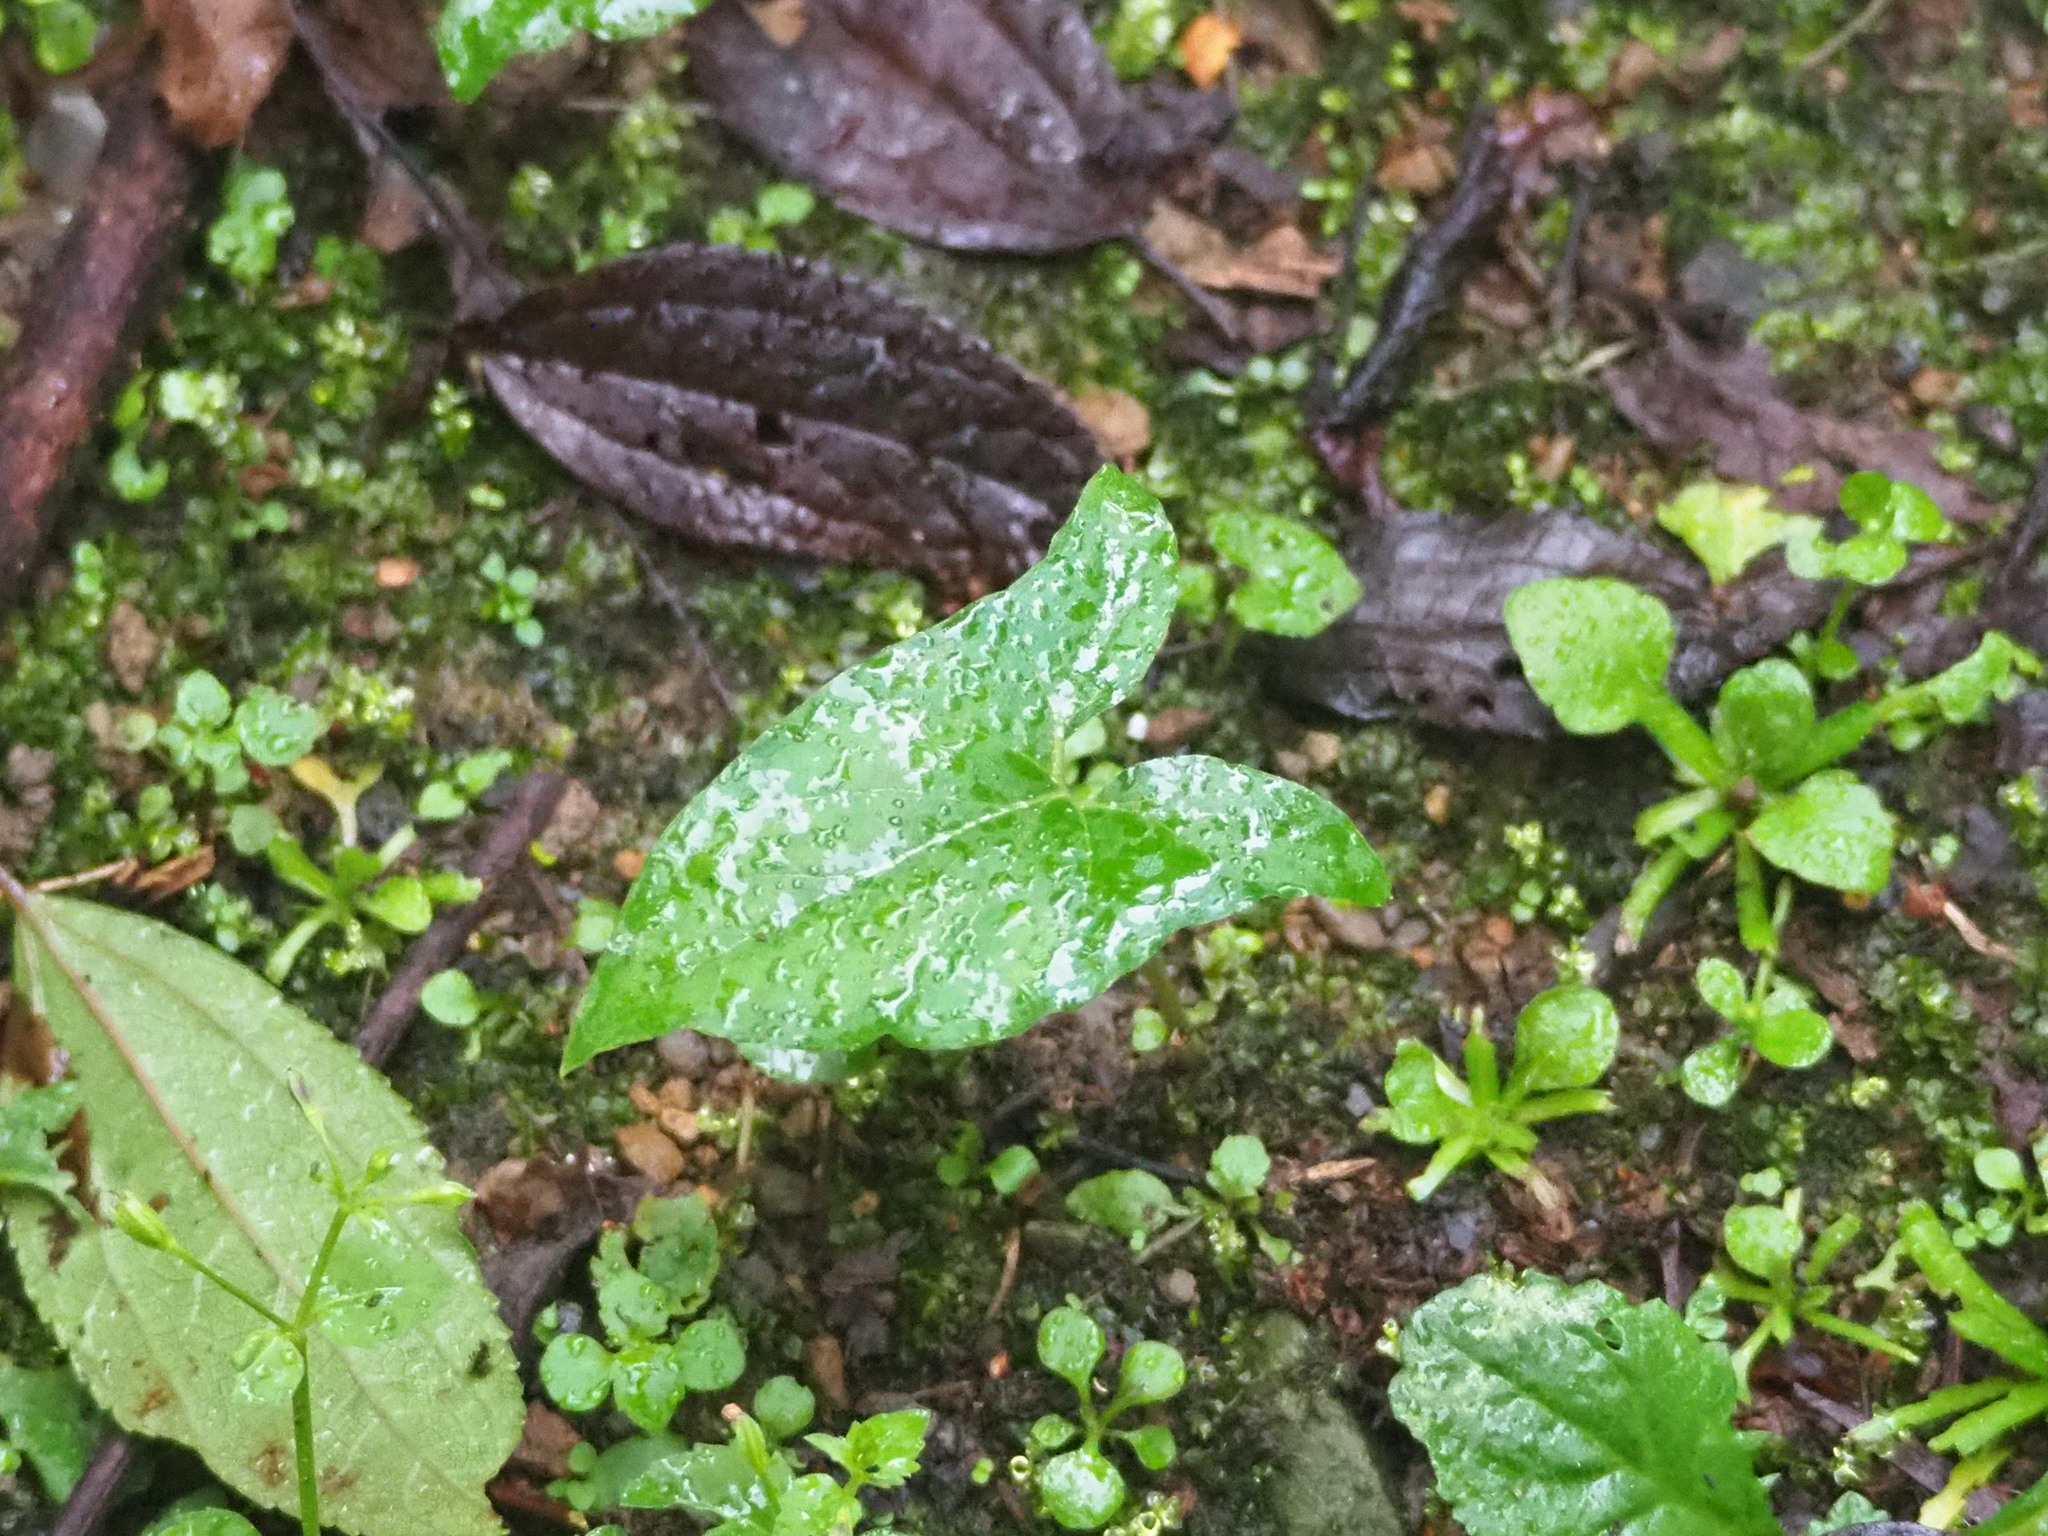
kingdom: Plantae
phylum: Tracheophyta
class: Liliopsida
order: Alismatales
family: Araceae
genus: Typhonium
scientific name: Typhonium blumei
